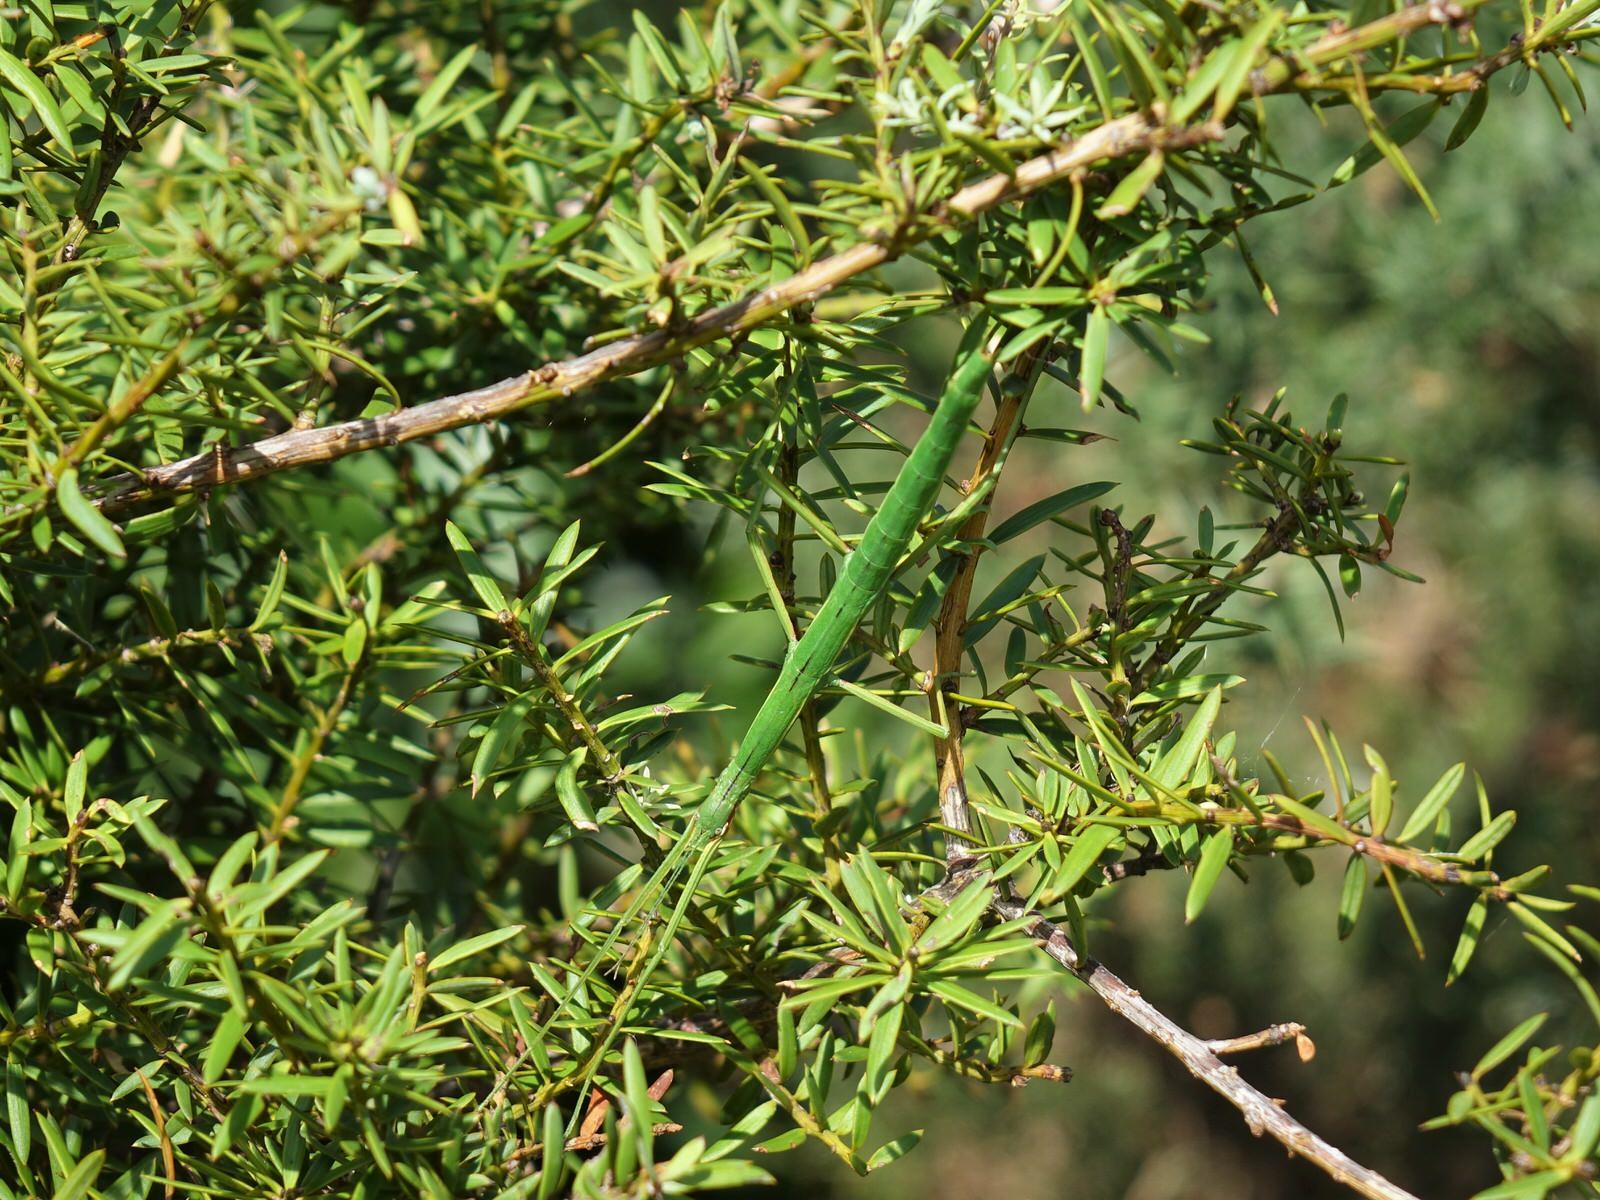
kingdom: Animalia
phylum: Arthropoda
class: Insecta
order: Phasmida
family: Phasmatidae
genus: Clitarchus
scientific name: Clitarchus hookeri
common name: Smooth stick insect
